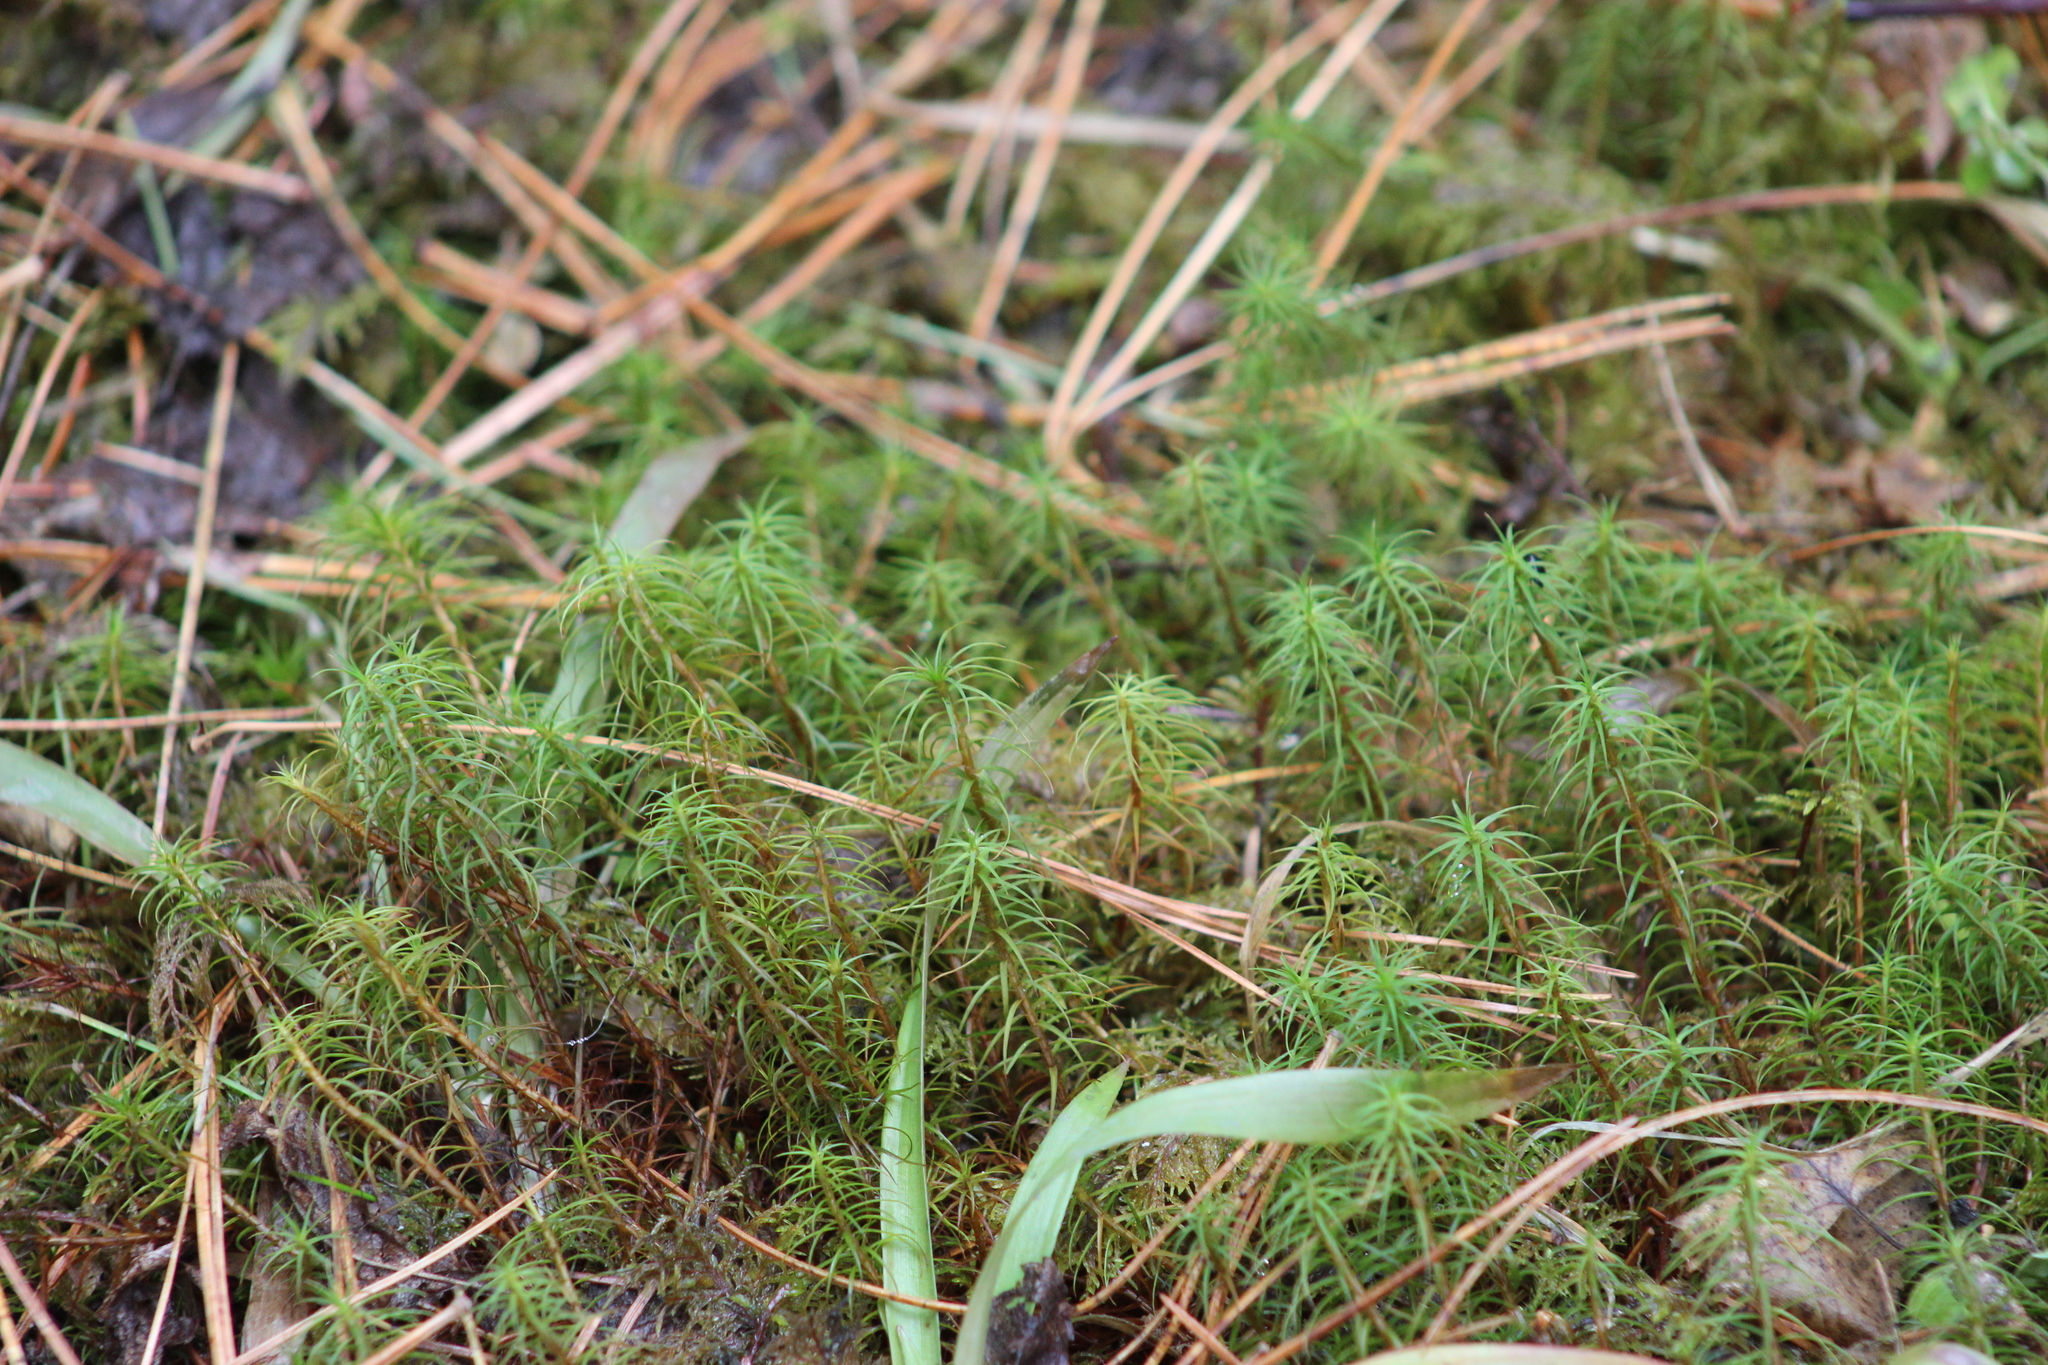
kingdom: Plantae
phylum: Bryophyta
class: Polytrichopsida
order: Polytrichales
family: Polytrichaceae
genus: Polytrichum
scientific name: Polytrichum commune
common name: Common haircap
